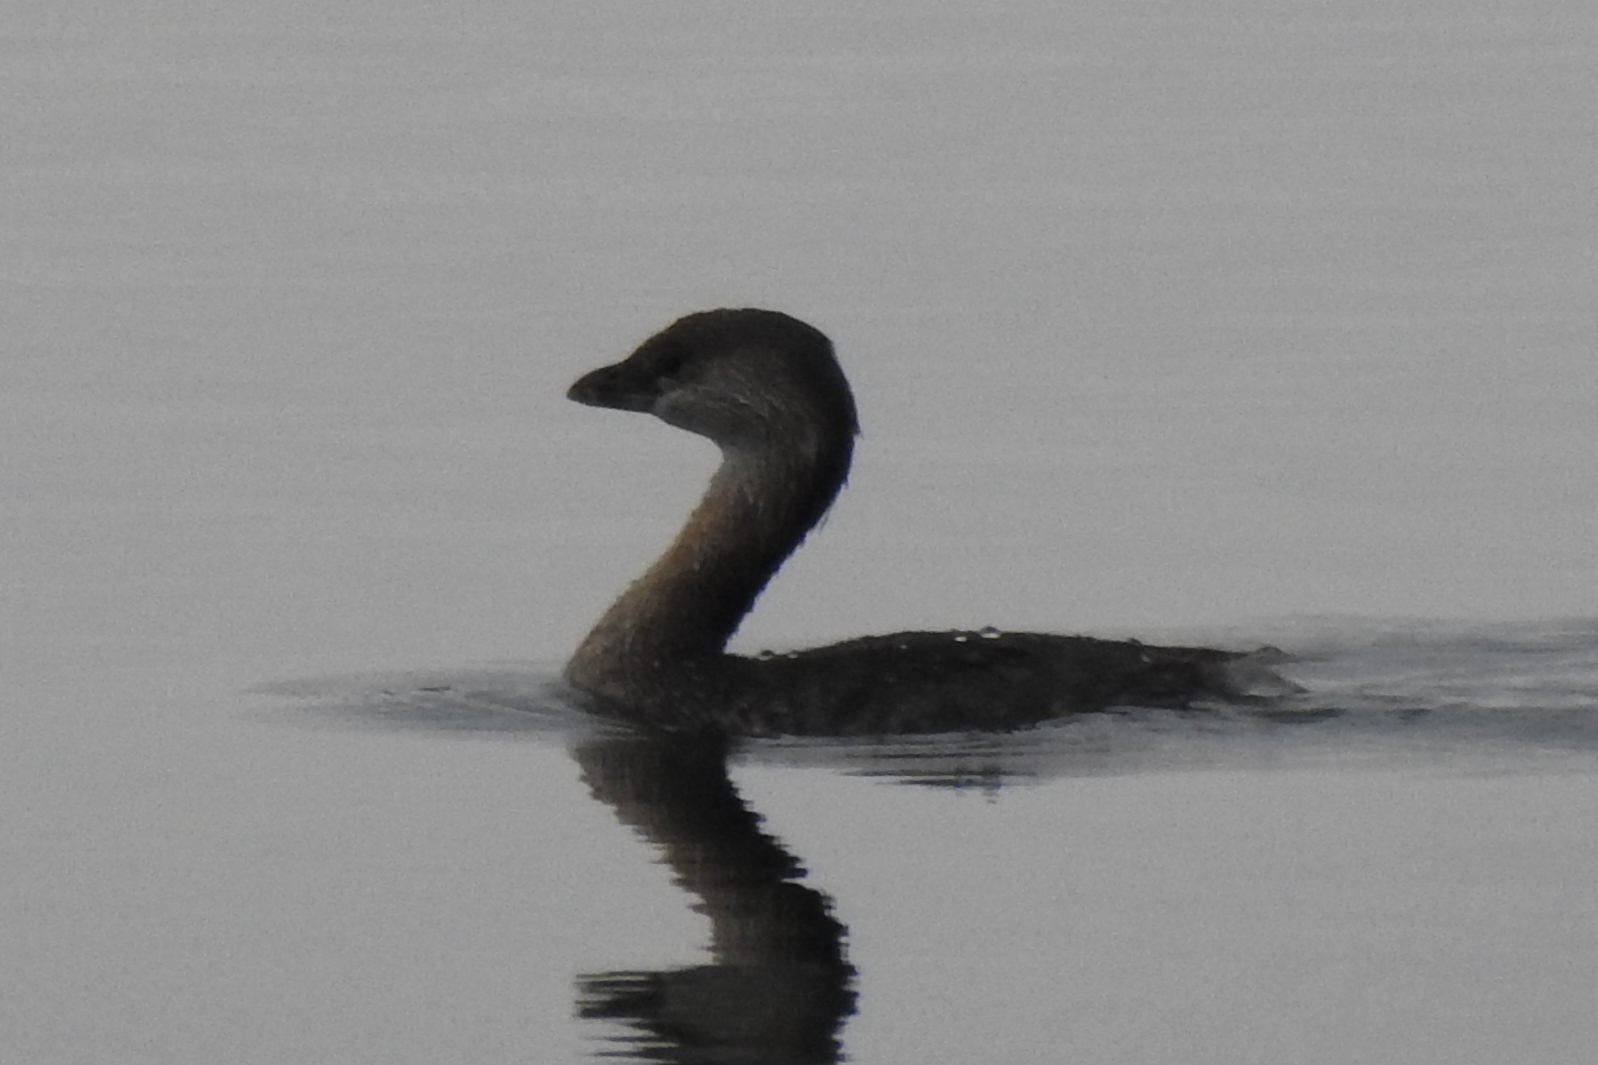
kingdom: Animalia
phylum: Chordata
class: Aves
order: Podicipediformes
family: Podicipedidae
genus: Podilymbus
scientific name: Podilymbus podiceps
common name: Pied-billed grebe
